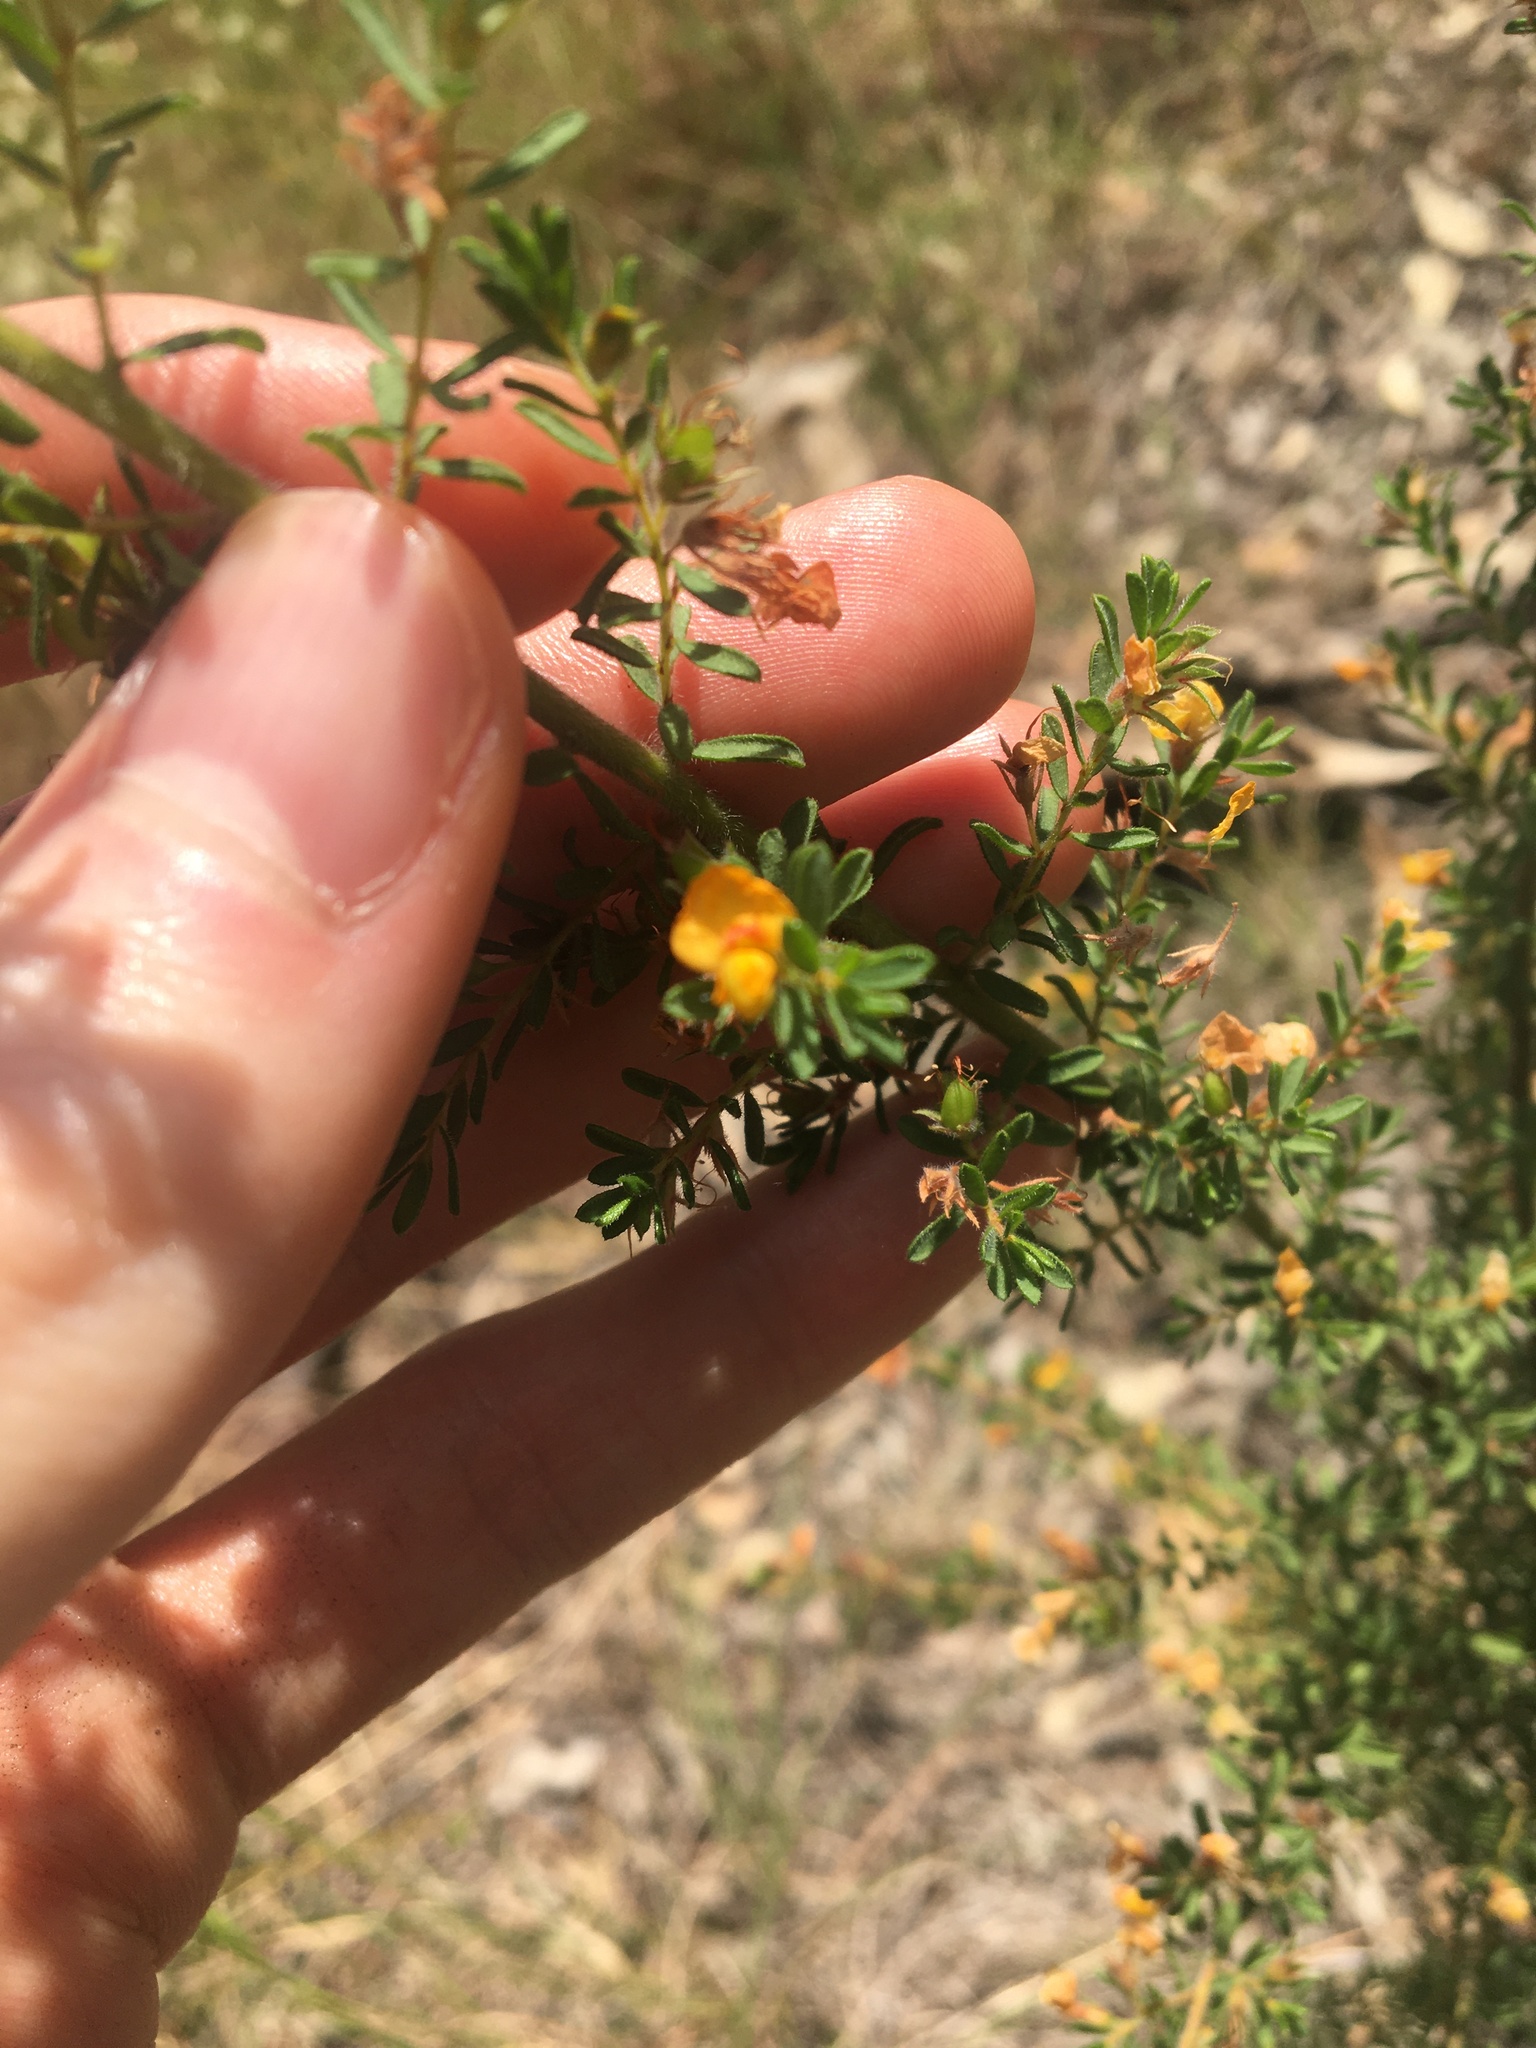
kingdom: Plantae
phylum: Tracheophyta
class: Magnoliopsida
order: Fabales
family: Fabaceae
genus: Pultenaea
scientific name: Pultenaea villosa
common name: Bronze bush-pea
